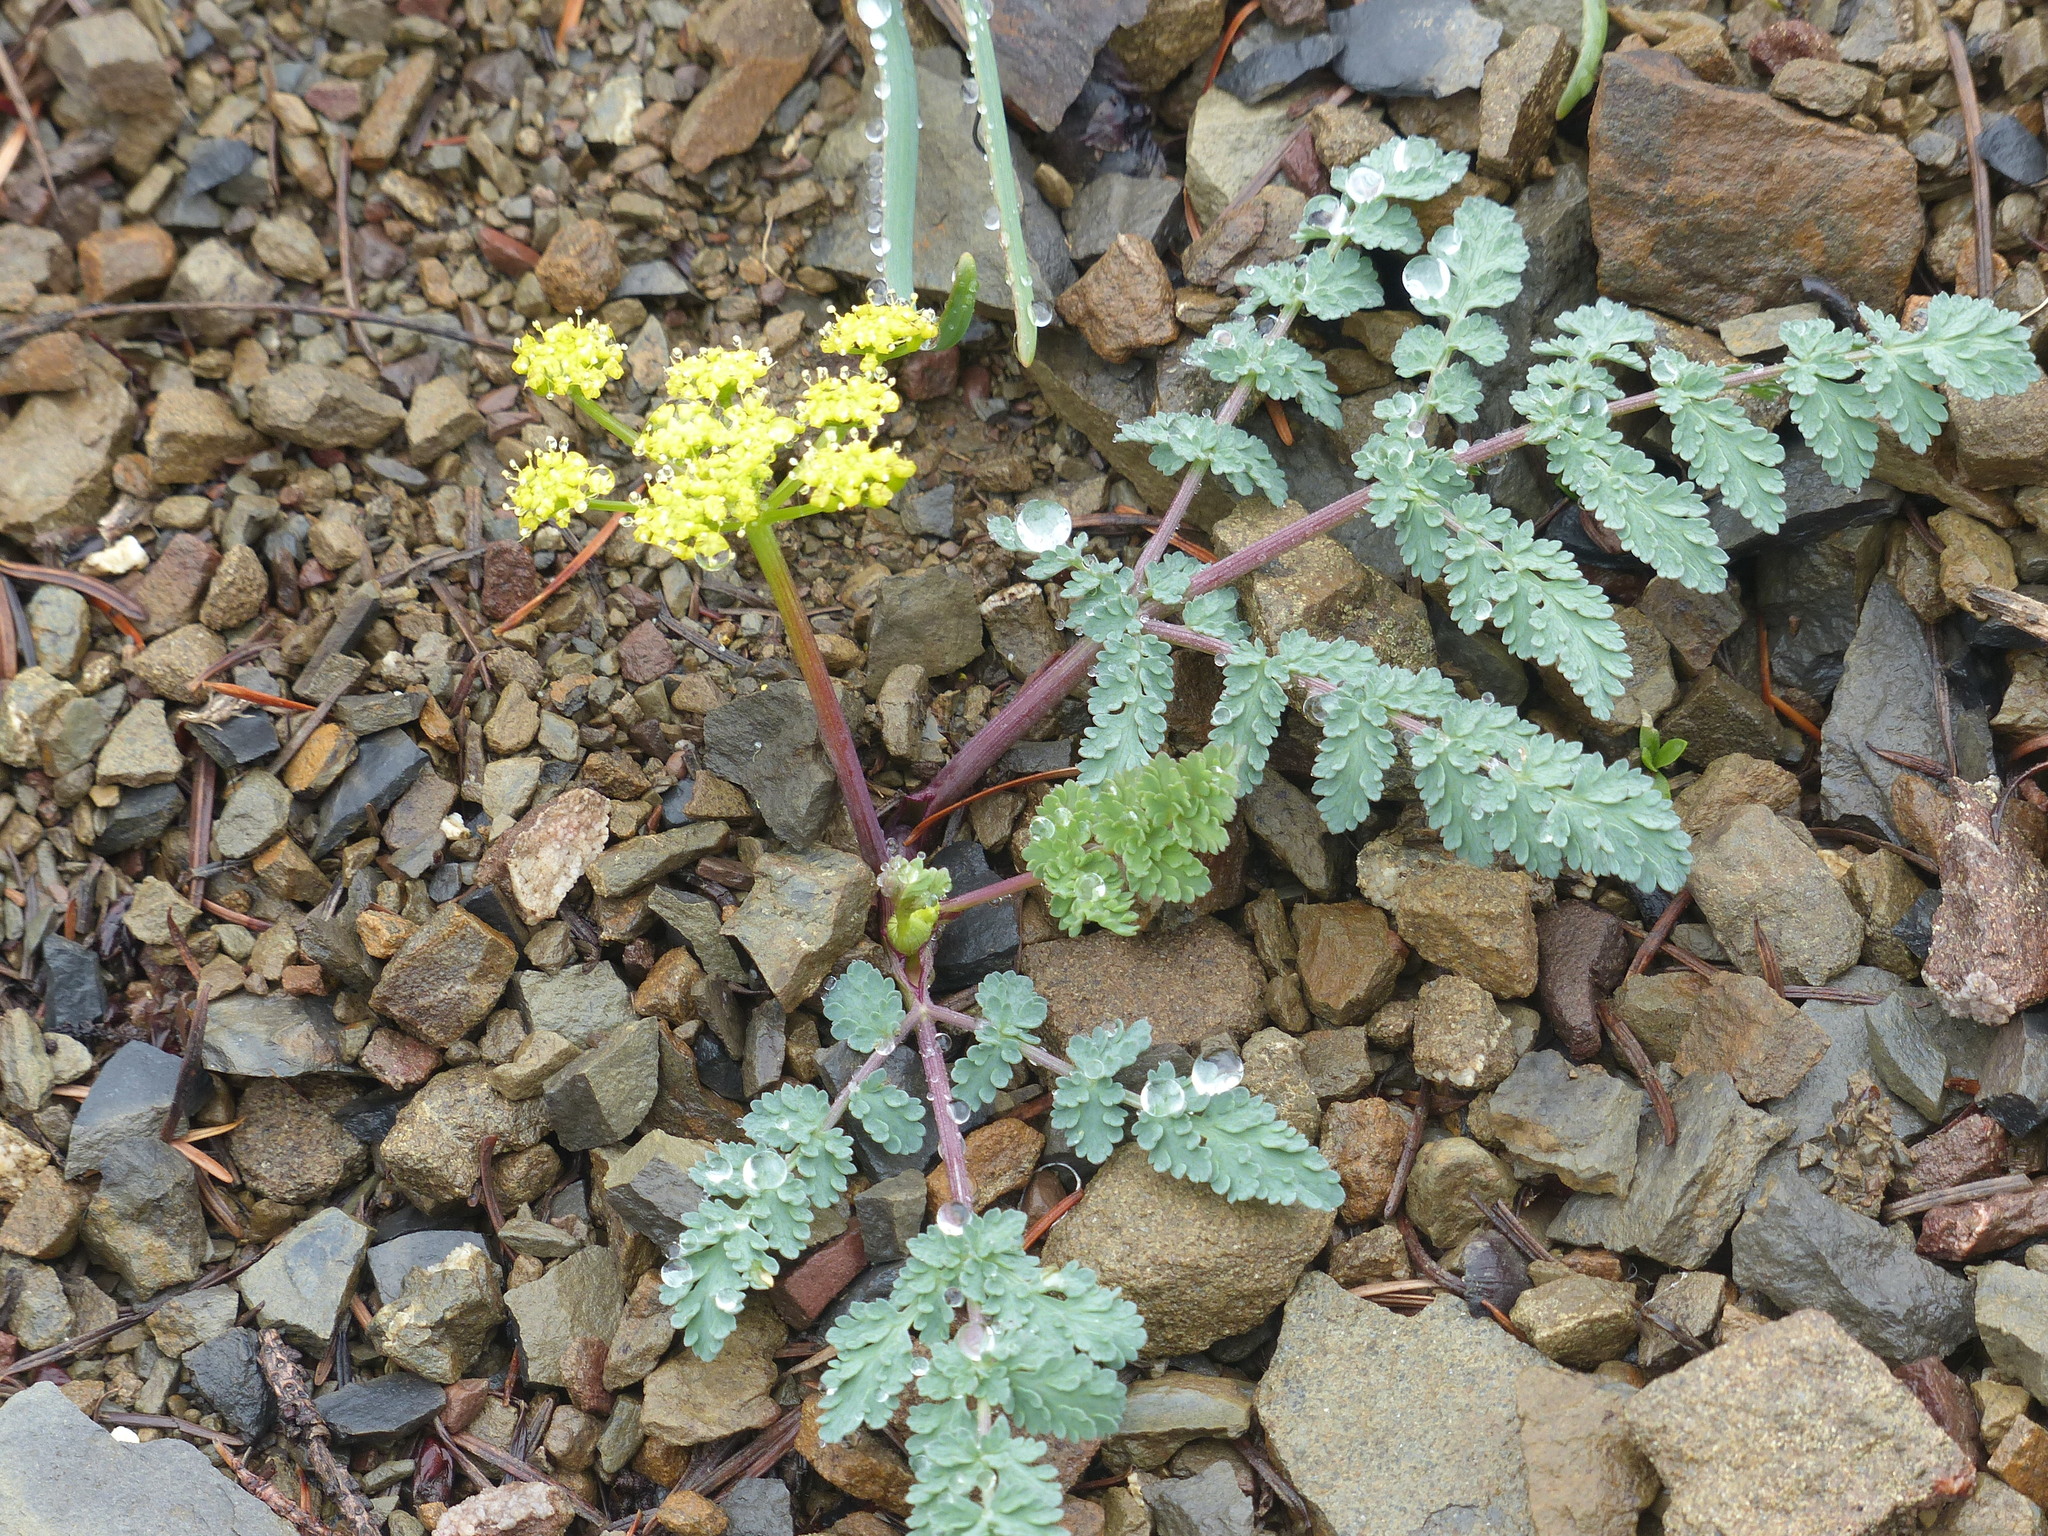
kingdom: Plantae
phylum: Tracheophyta
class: Magnoliopsida
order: Apiales
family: Apiaceae
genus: Lomatium
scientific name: Lomatium martindalei
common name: Cascade desert-parsley
